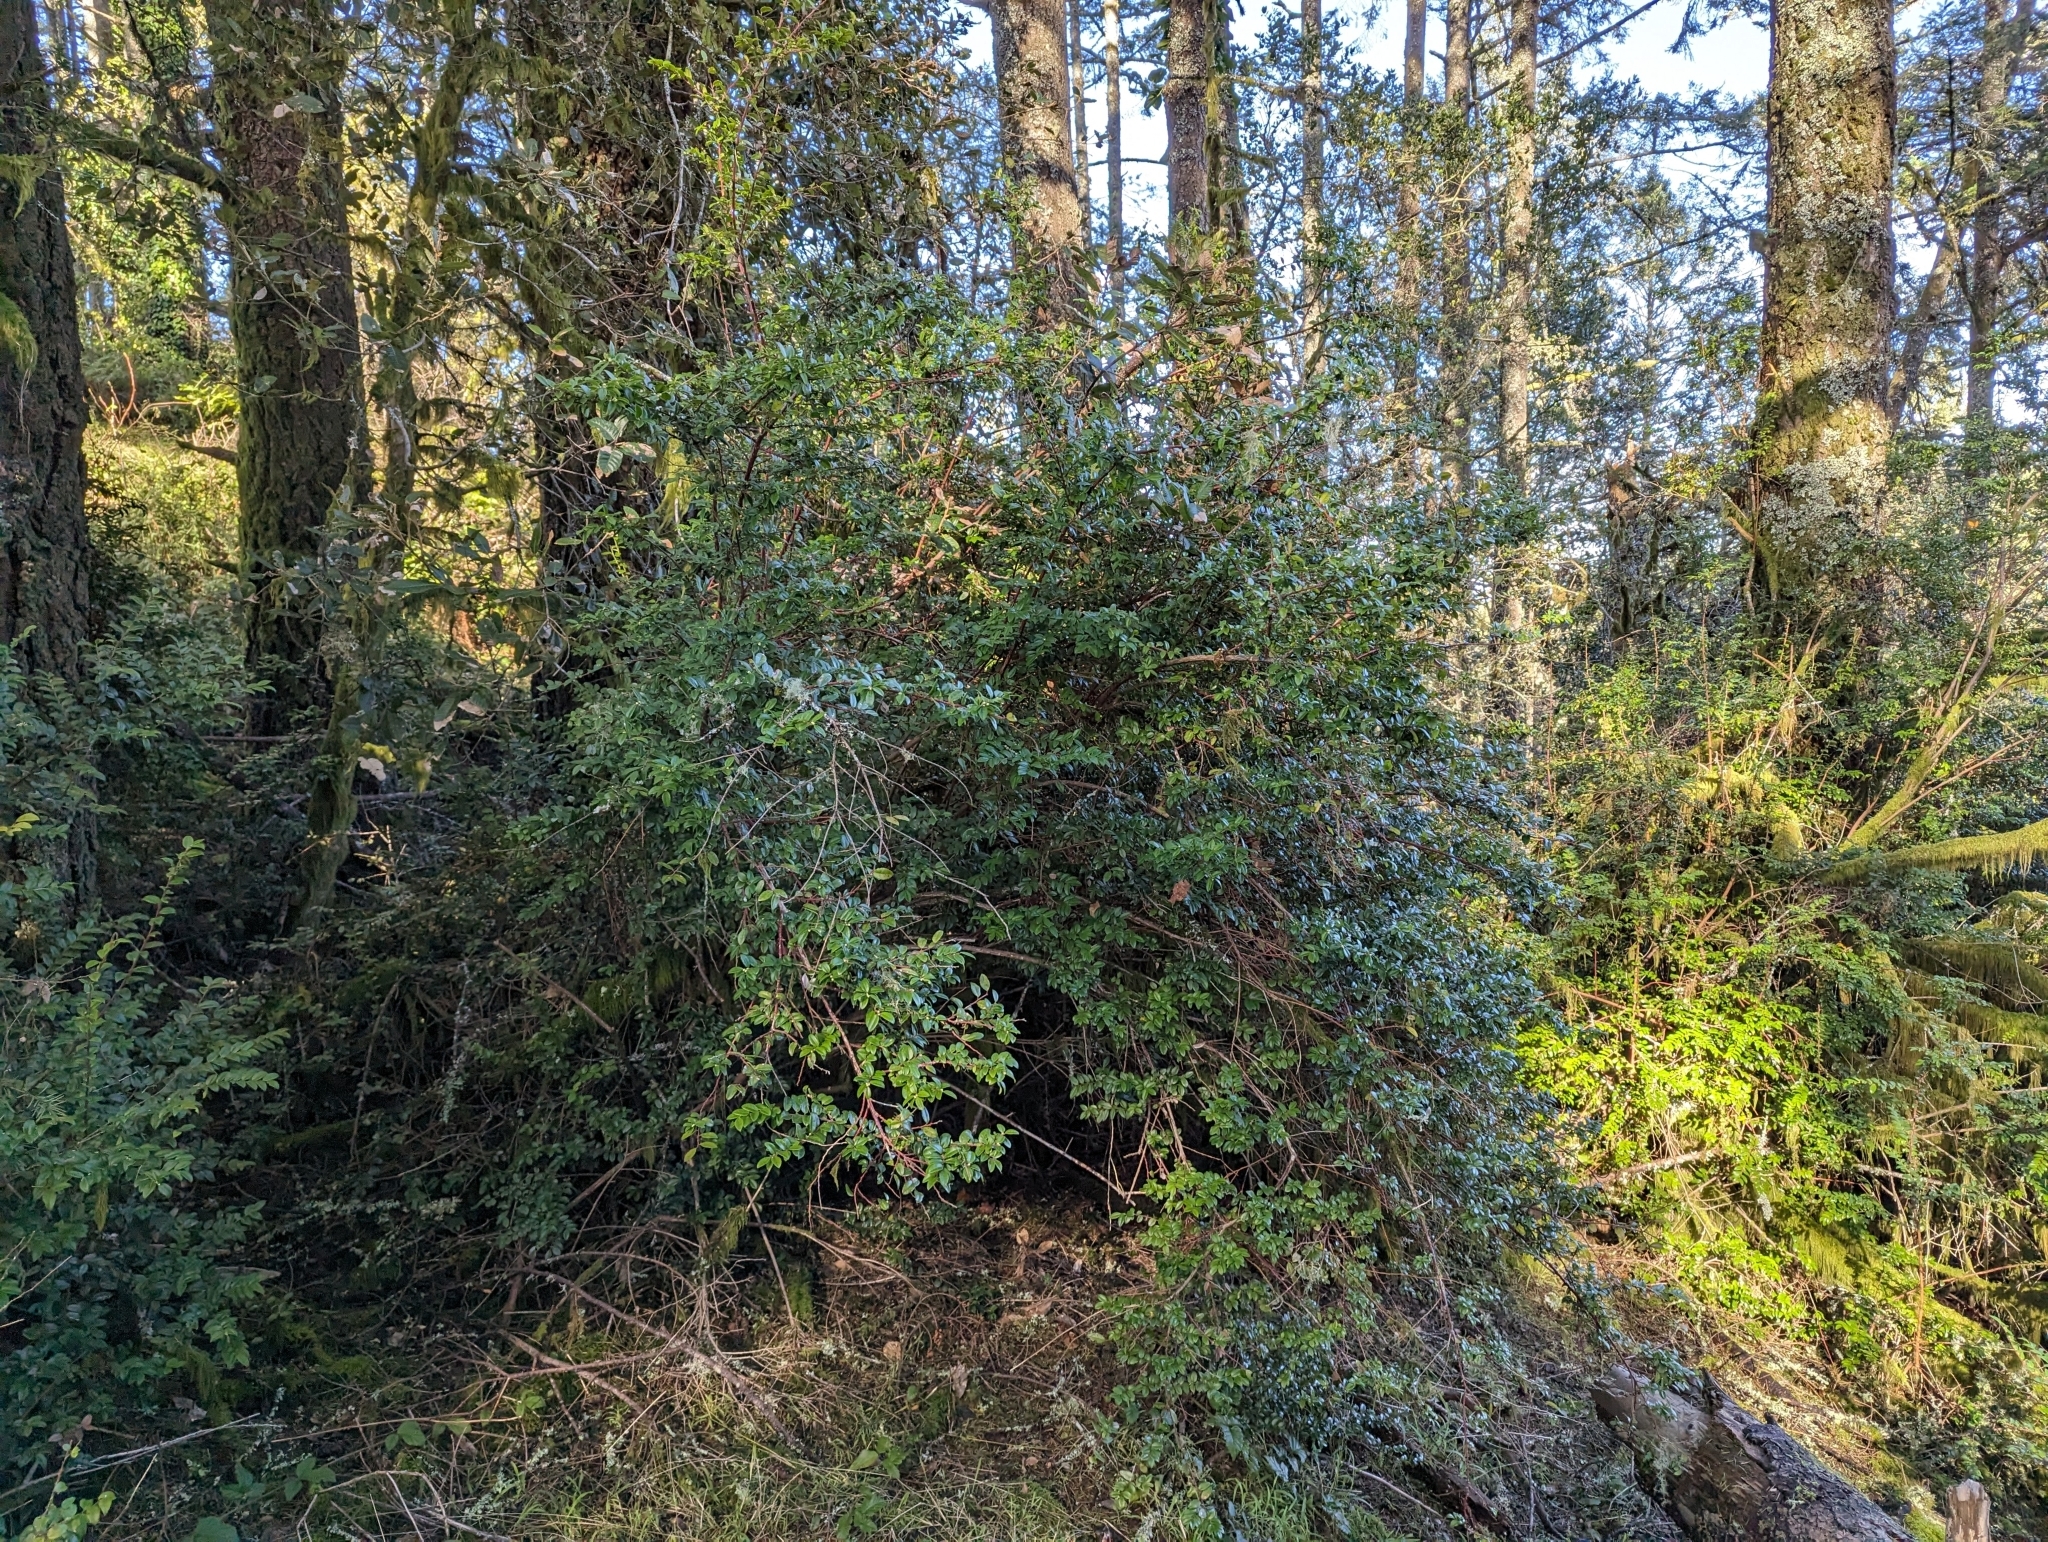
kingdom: Plantae
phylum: Tracheophyta
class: Magnoliopsida
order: Ericales
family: Ericaceae
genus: Vaccinium
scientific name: Vaccinium ovatum
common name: California-huckleberry
